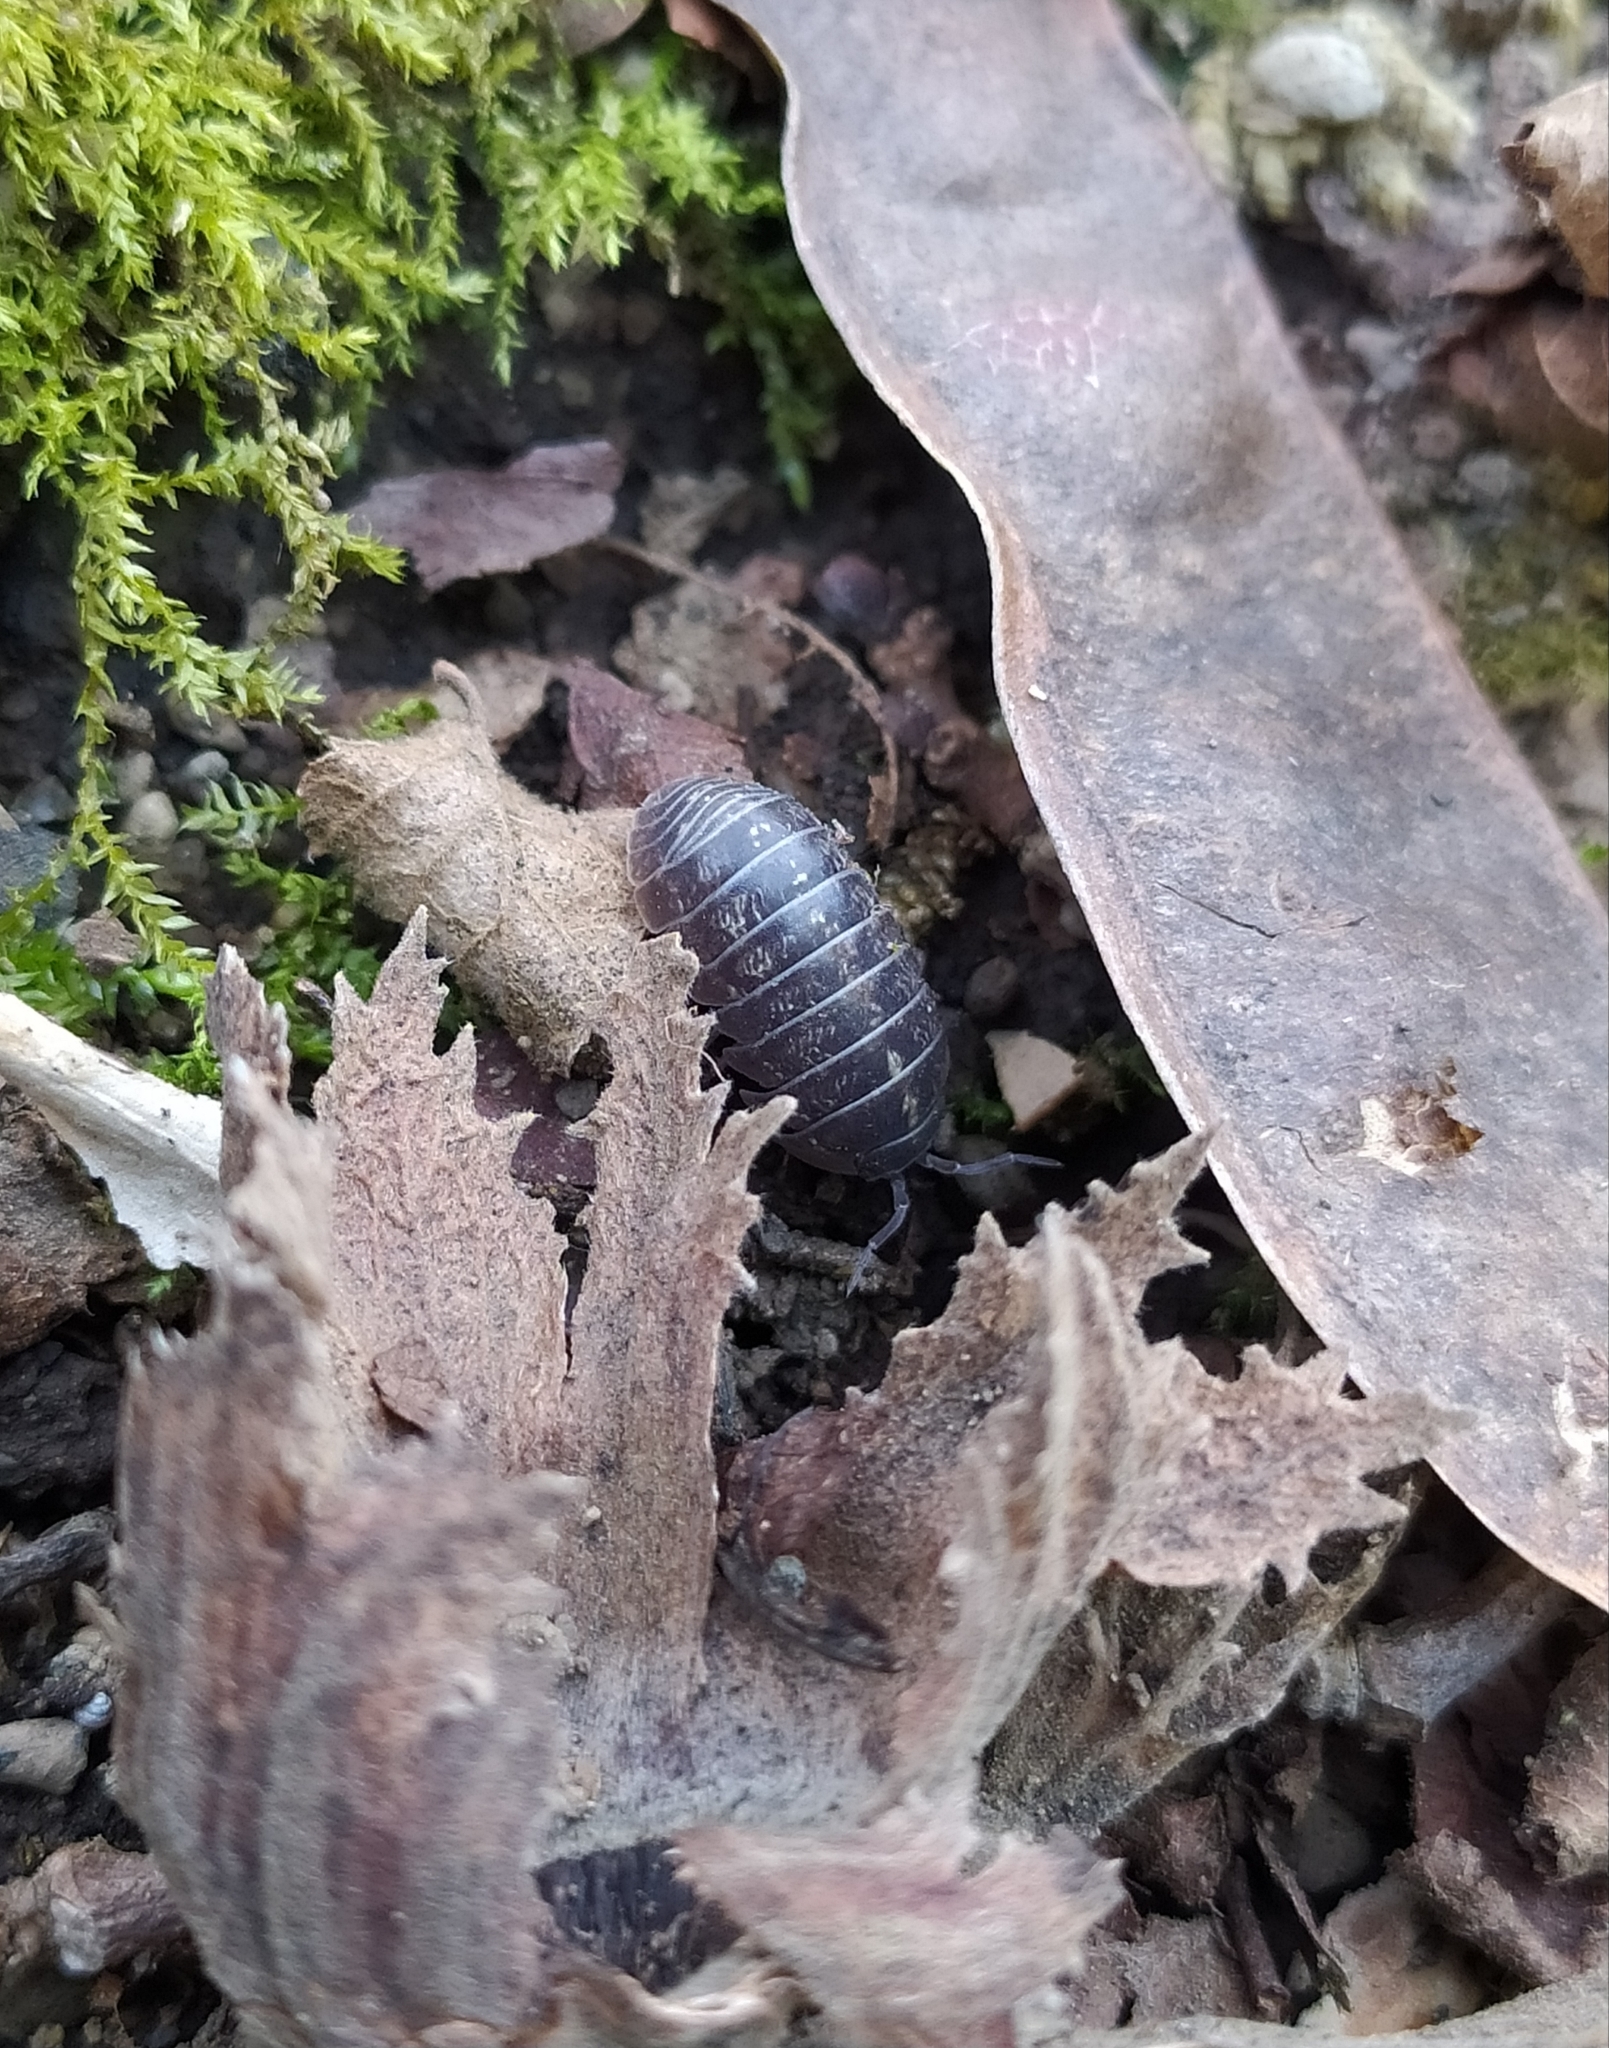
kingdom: Animalia
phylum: Arthropoda
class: Malacostraca
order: Isopoda
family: Armadillidiidae
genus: Armadillidium
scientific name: Armadillidium vulgare
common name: Common pill woodlouse
